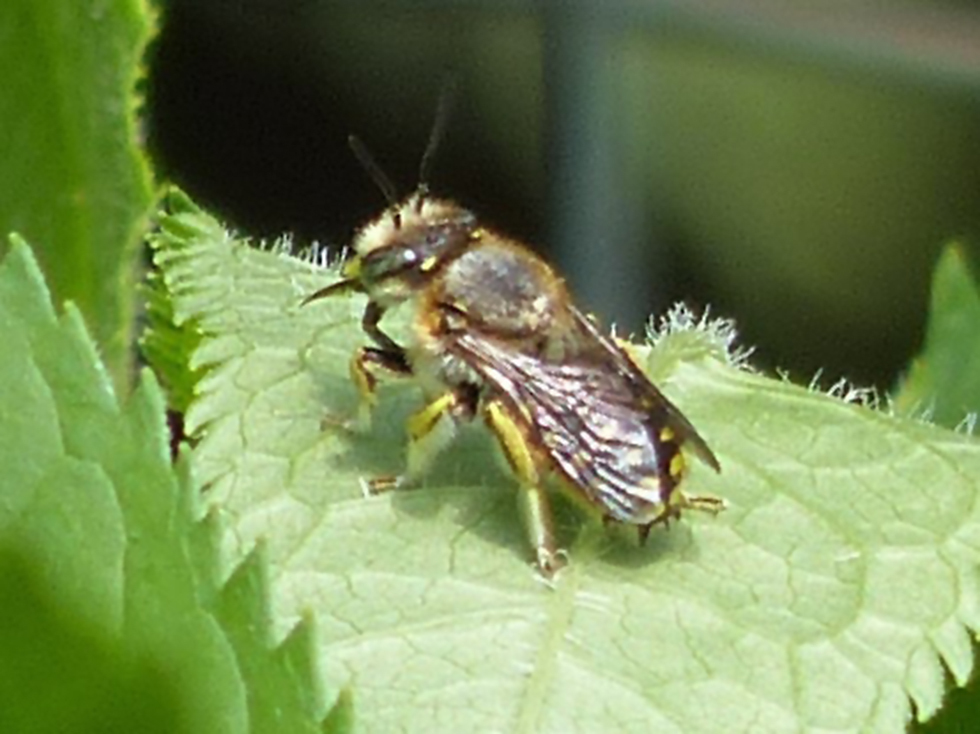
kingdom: Animalia
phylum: Arthropoda
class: Insecta
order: Hymenoptera
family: Megachilidae
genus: Anthidium
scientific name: Anthidium manicatum
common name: Wool carder bee
